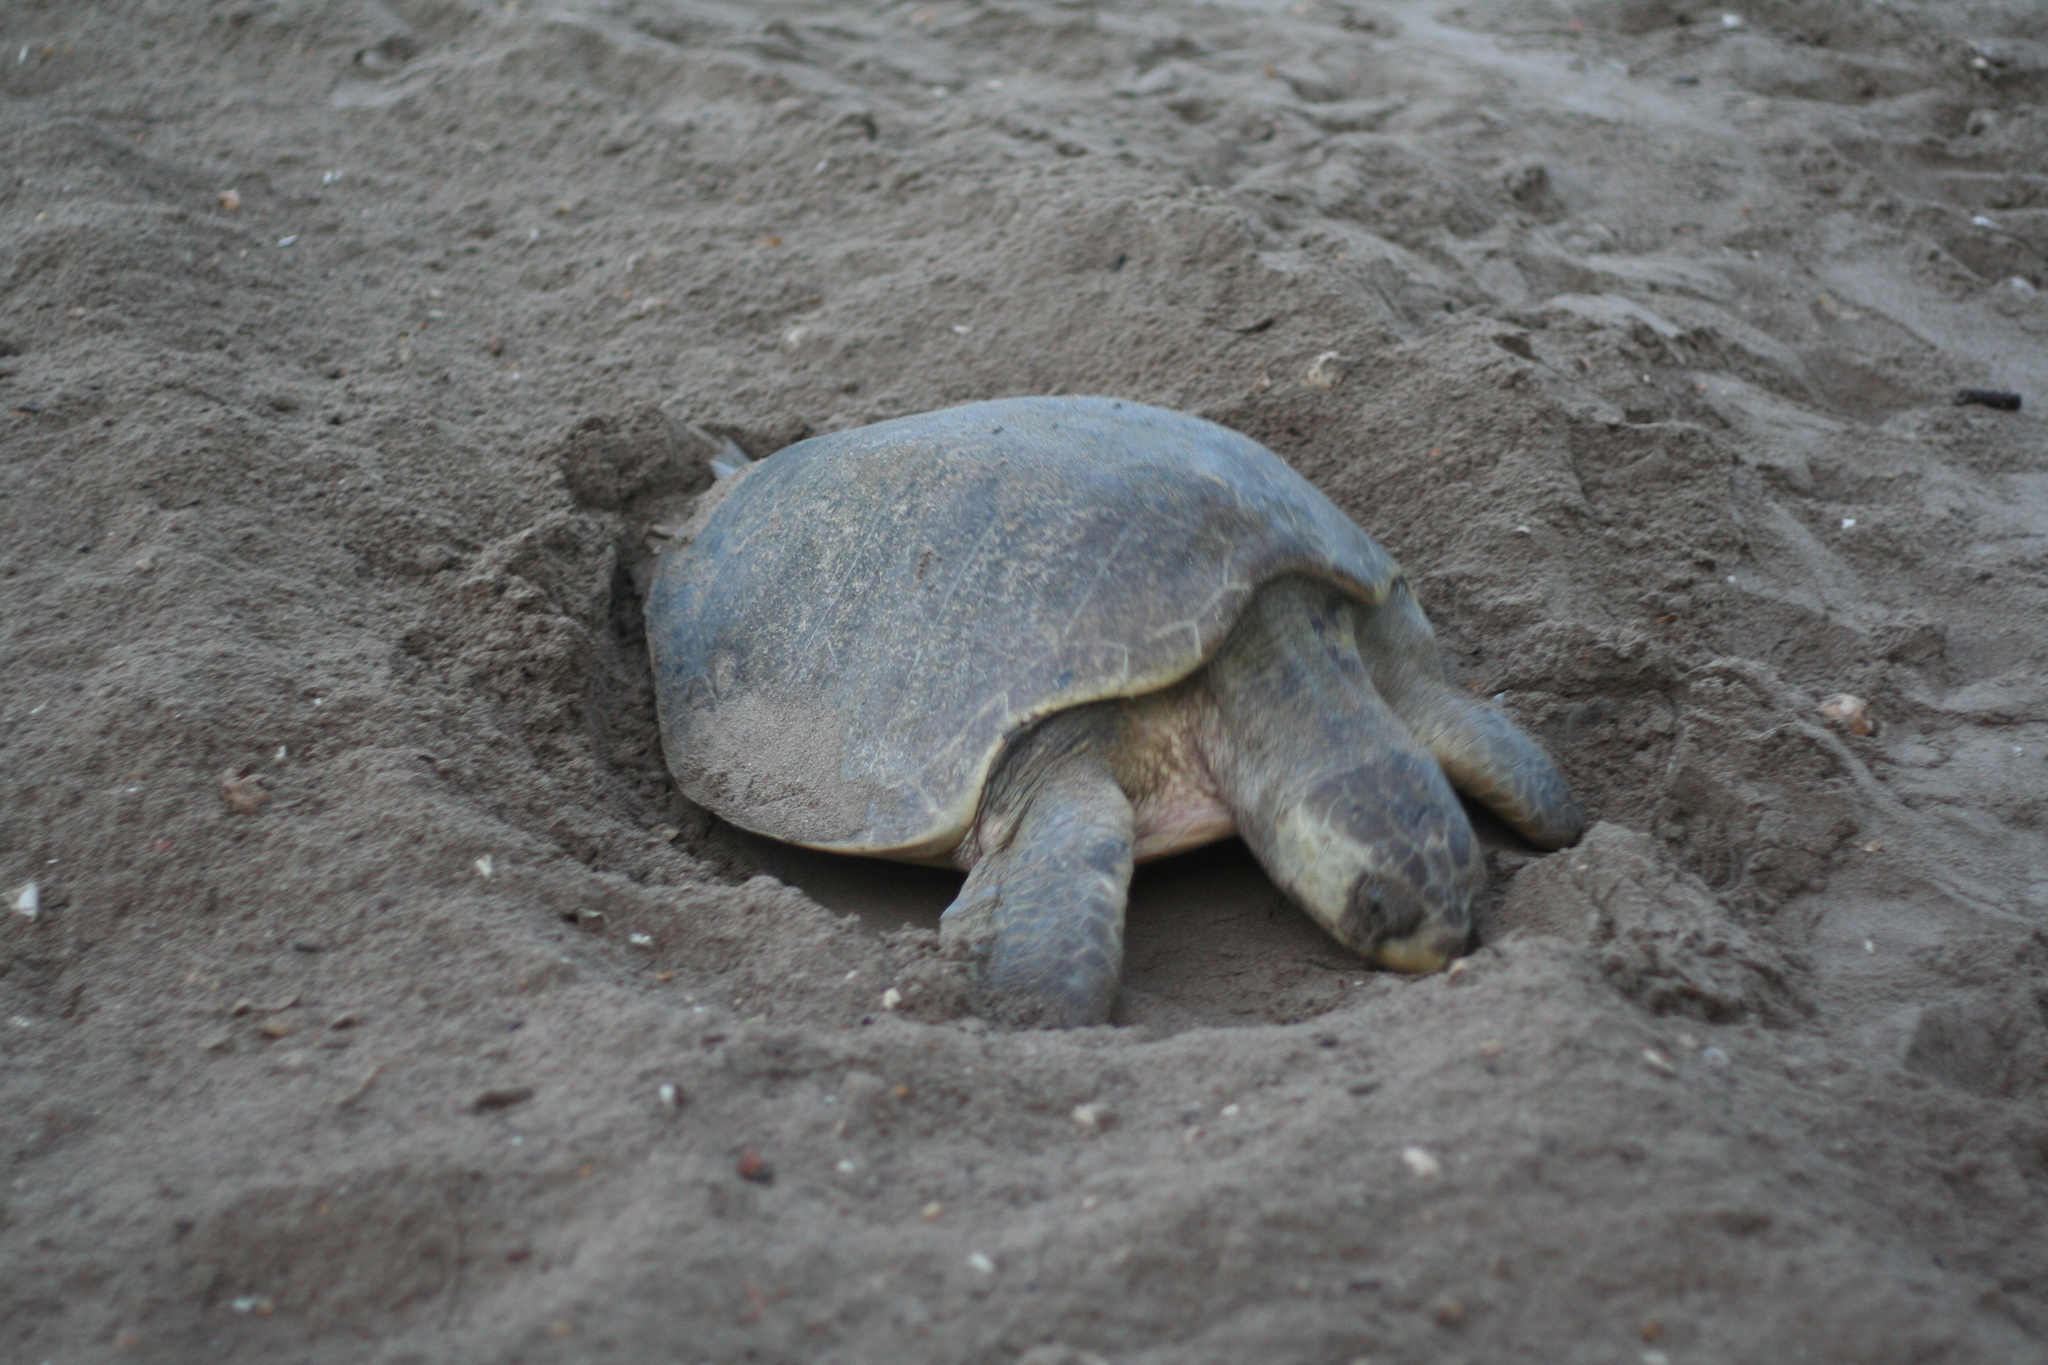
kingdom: Animalia
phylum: Chordata
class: Testudines
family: Cheloniidae
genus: Lepidochelys
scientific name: Lepidochelys olivacea
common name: Olive ridley
